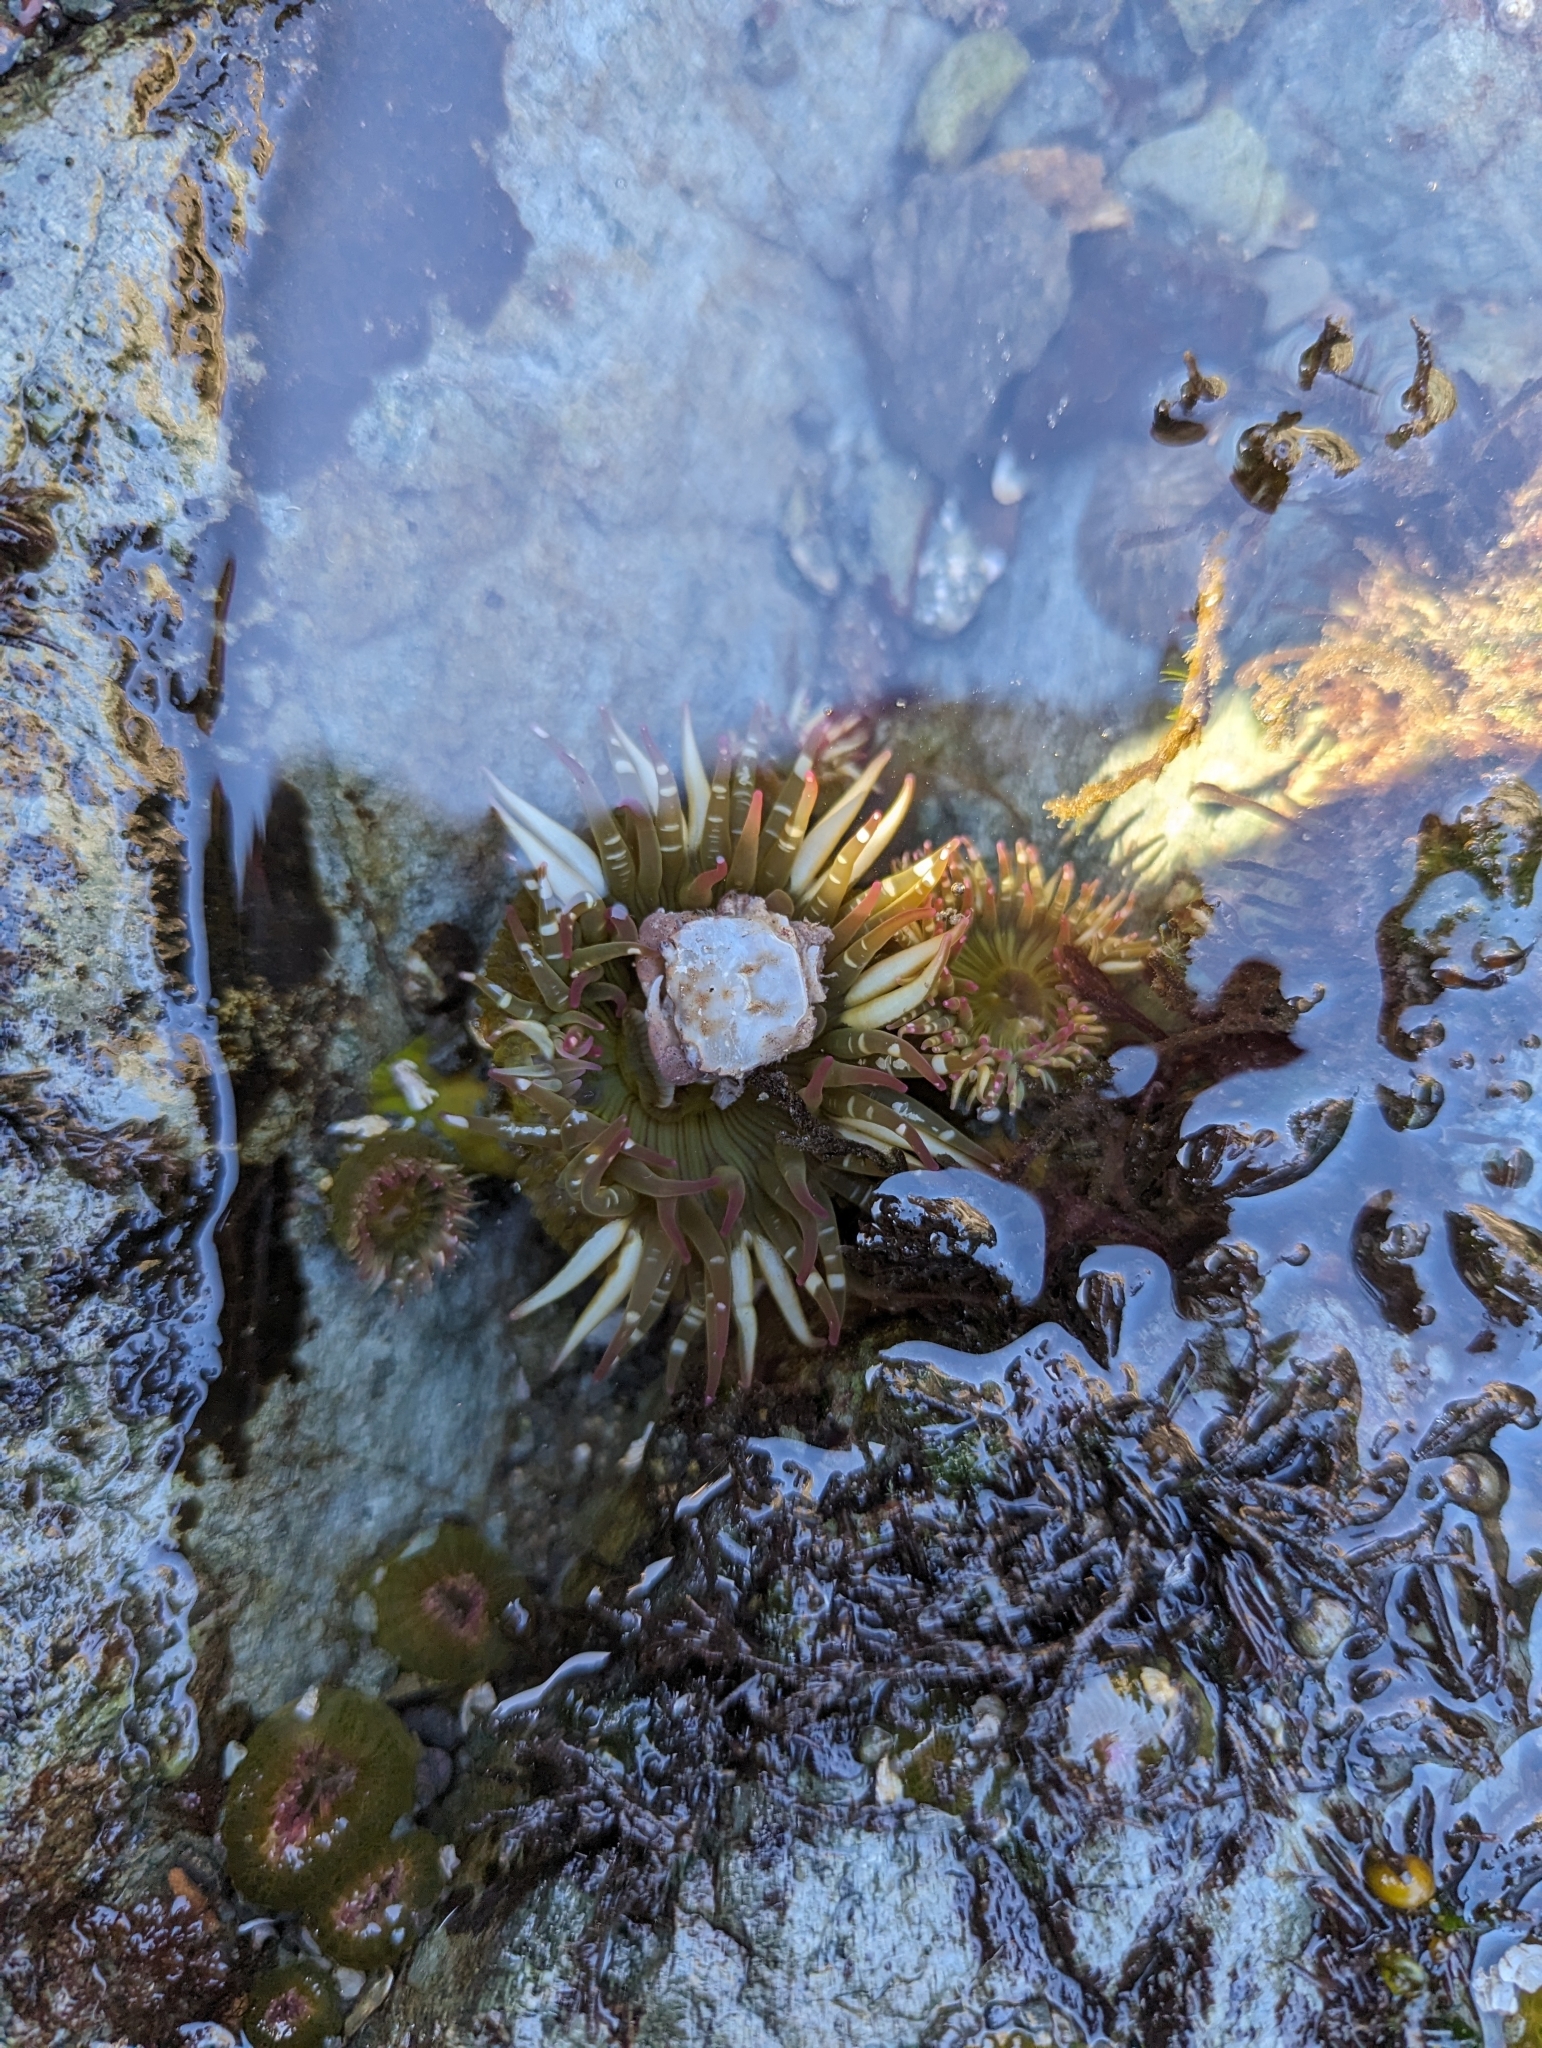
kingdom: Animalia
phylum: Cnidaria
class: Anthozoa
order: Actiniaria
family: Actiniidae
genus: Anthopleura
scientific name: Anthopleura elegantissima
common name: Clonal anemone
